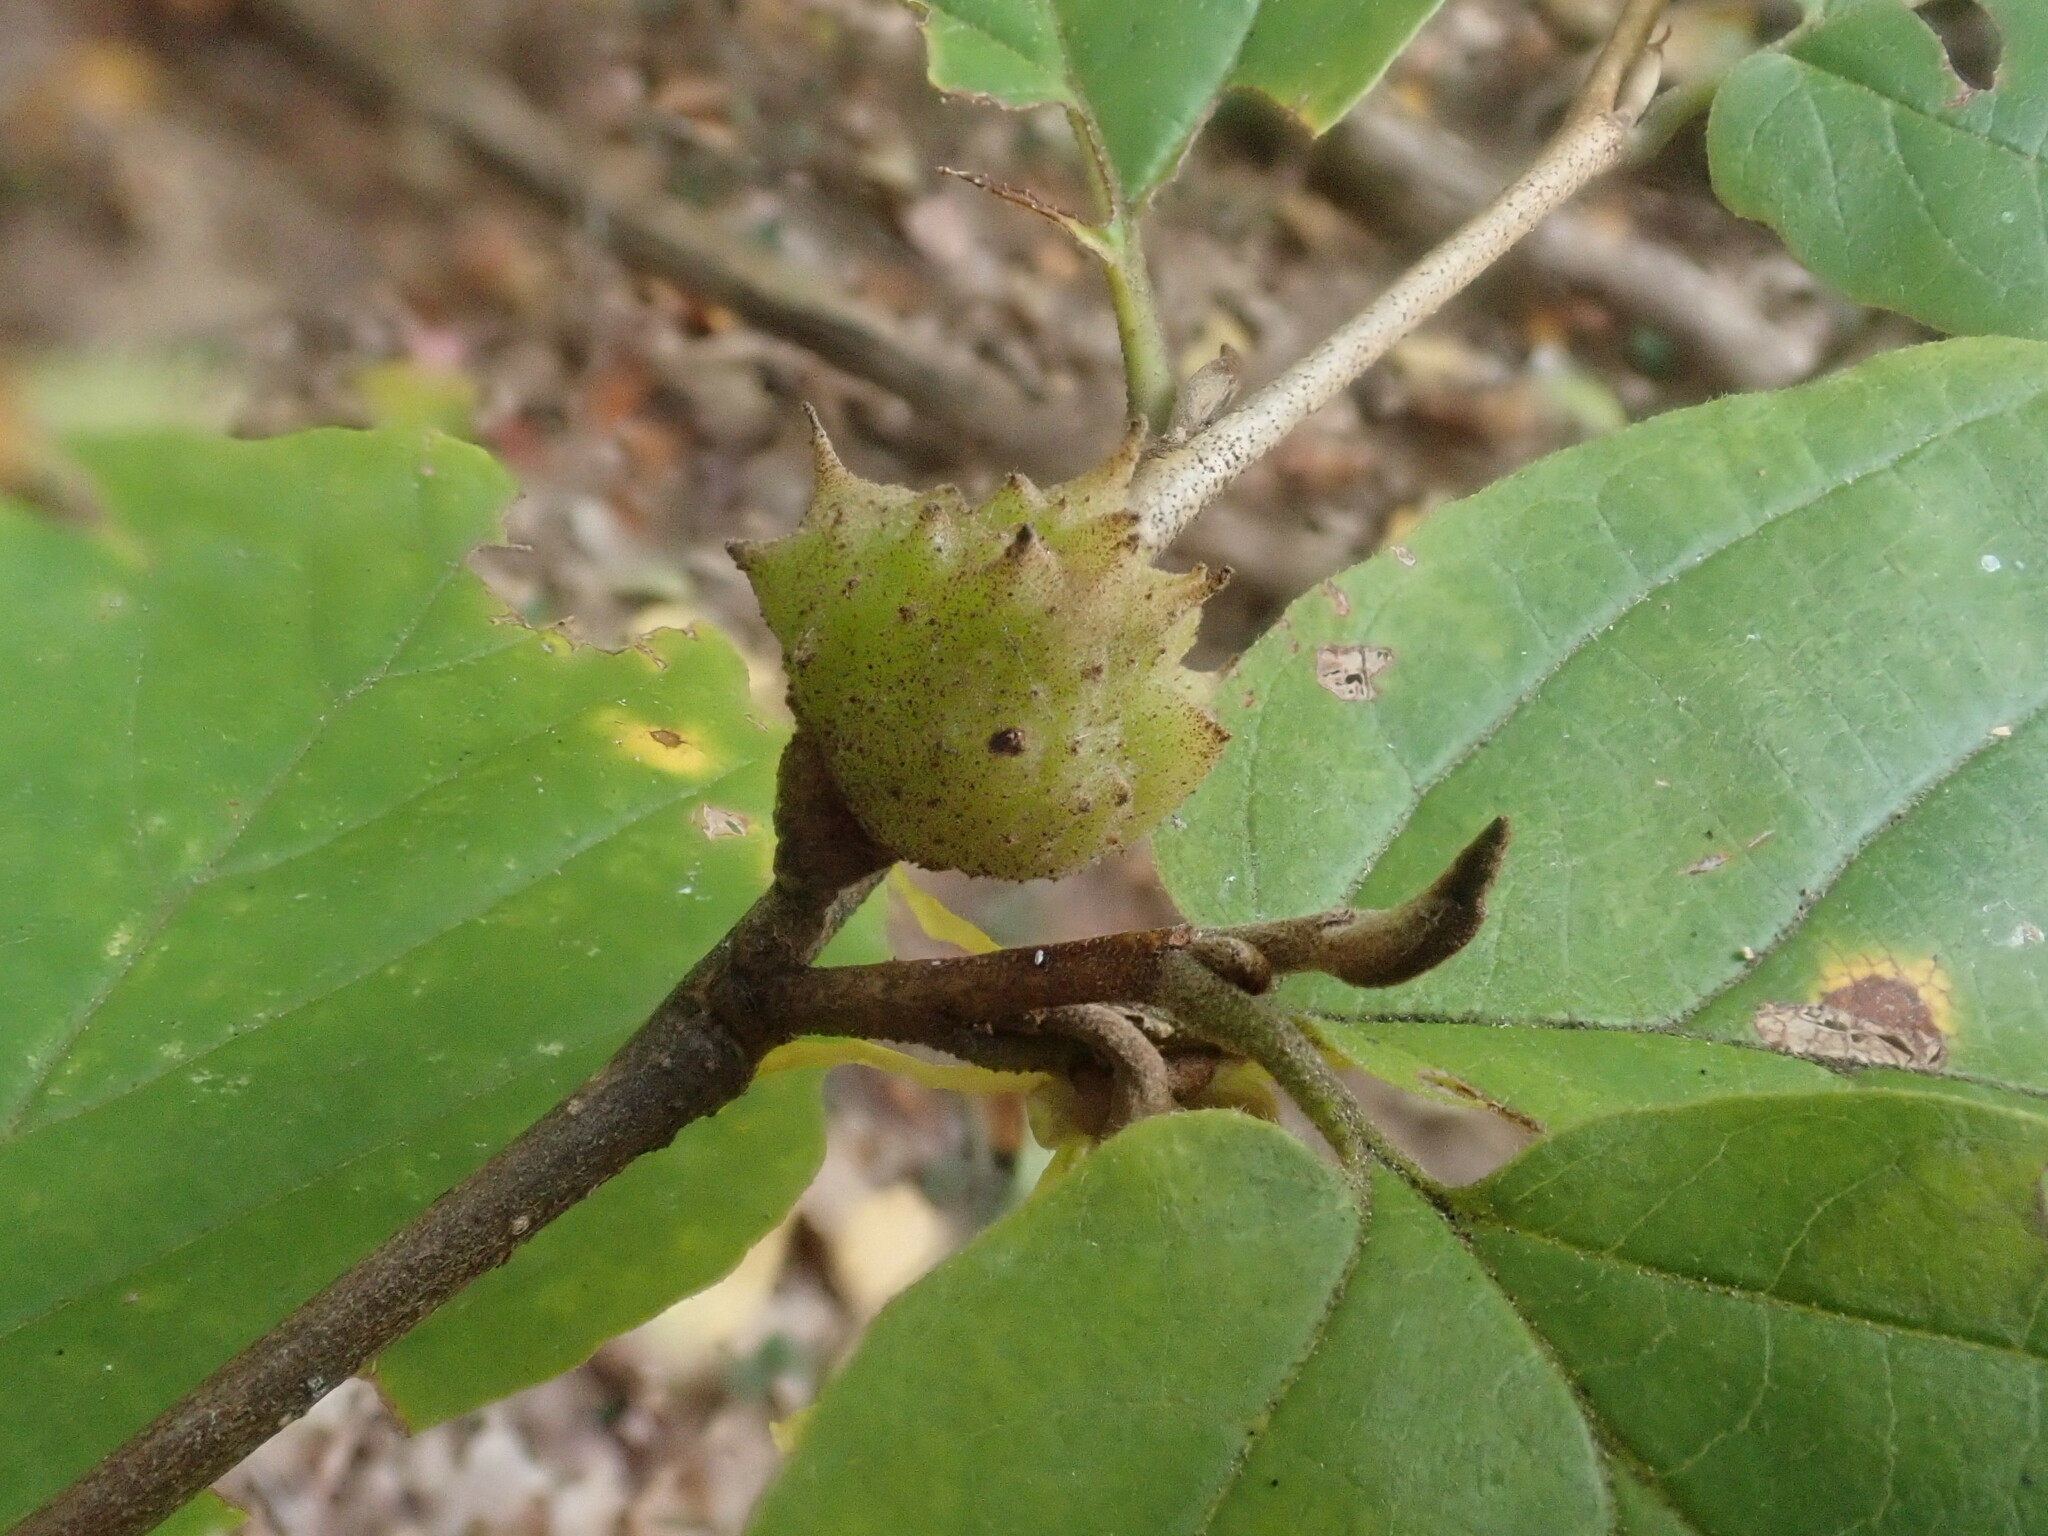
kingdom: Animalia
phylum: Arthropoda
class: Insecta
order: Hemiptera
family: Aphididae
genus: Hamamelistes
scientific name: Hamamelistes spinosus
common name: Witch hazel gall aphid
